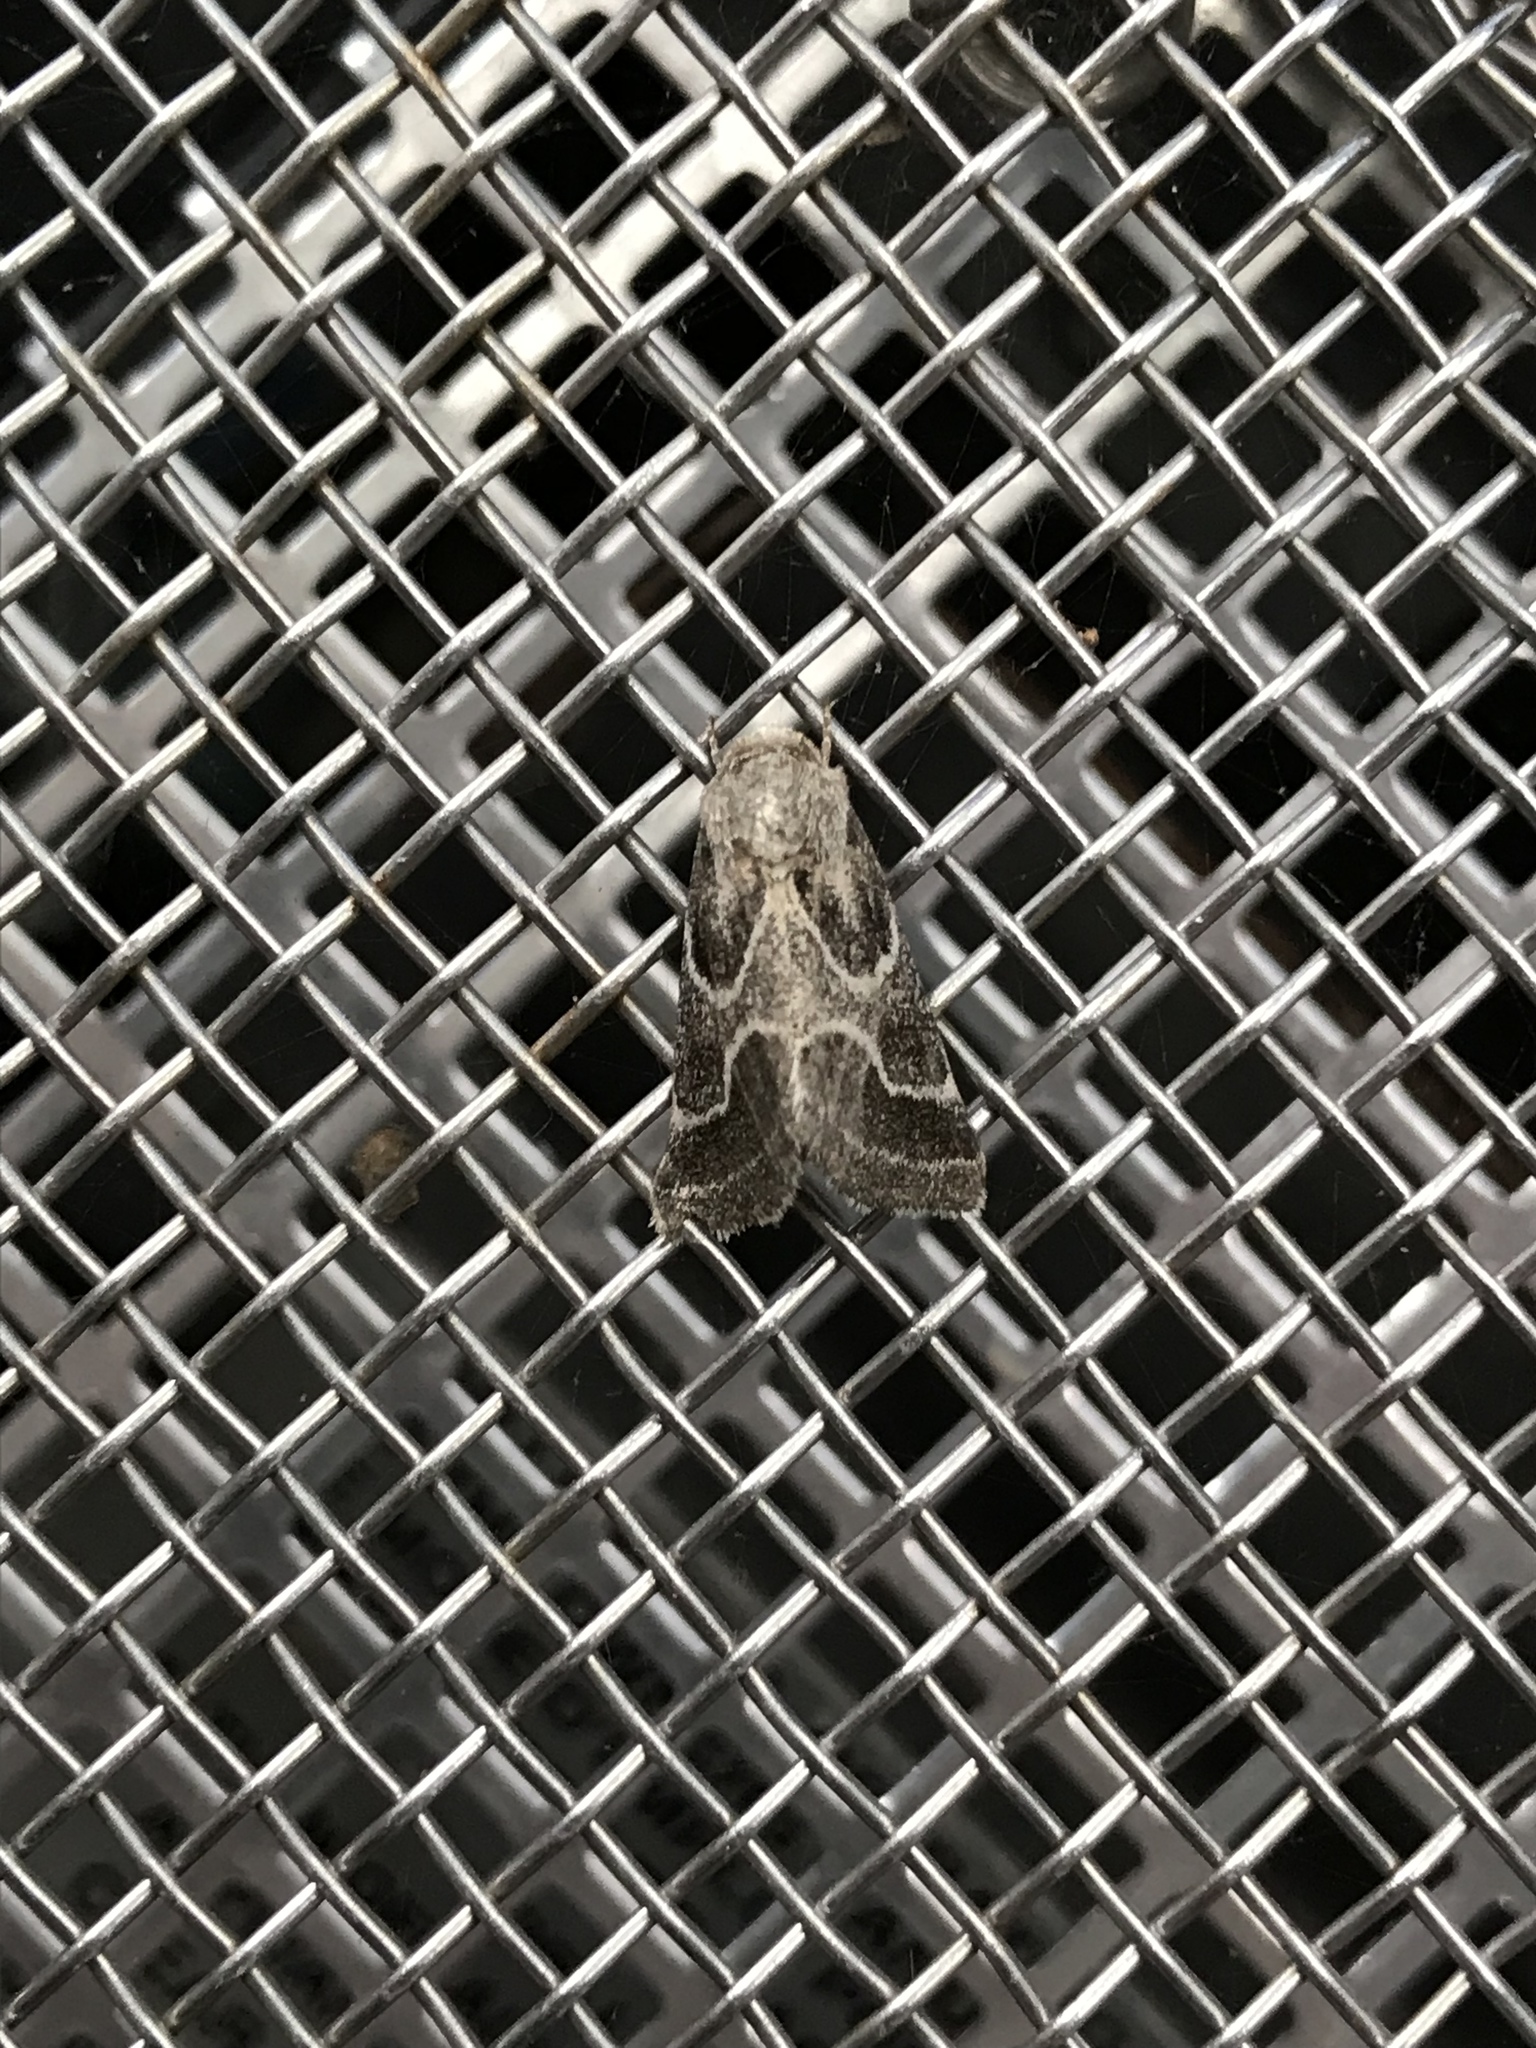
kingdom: Animalia
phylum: Arthropoda
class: Insecta
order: Lepidoptera
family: Noctuidae
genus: Schinia
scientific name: Schinia rivulosa
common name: Scarce meal-moth
